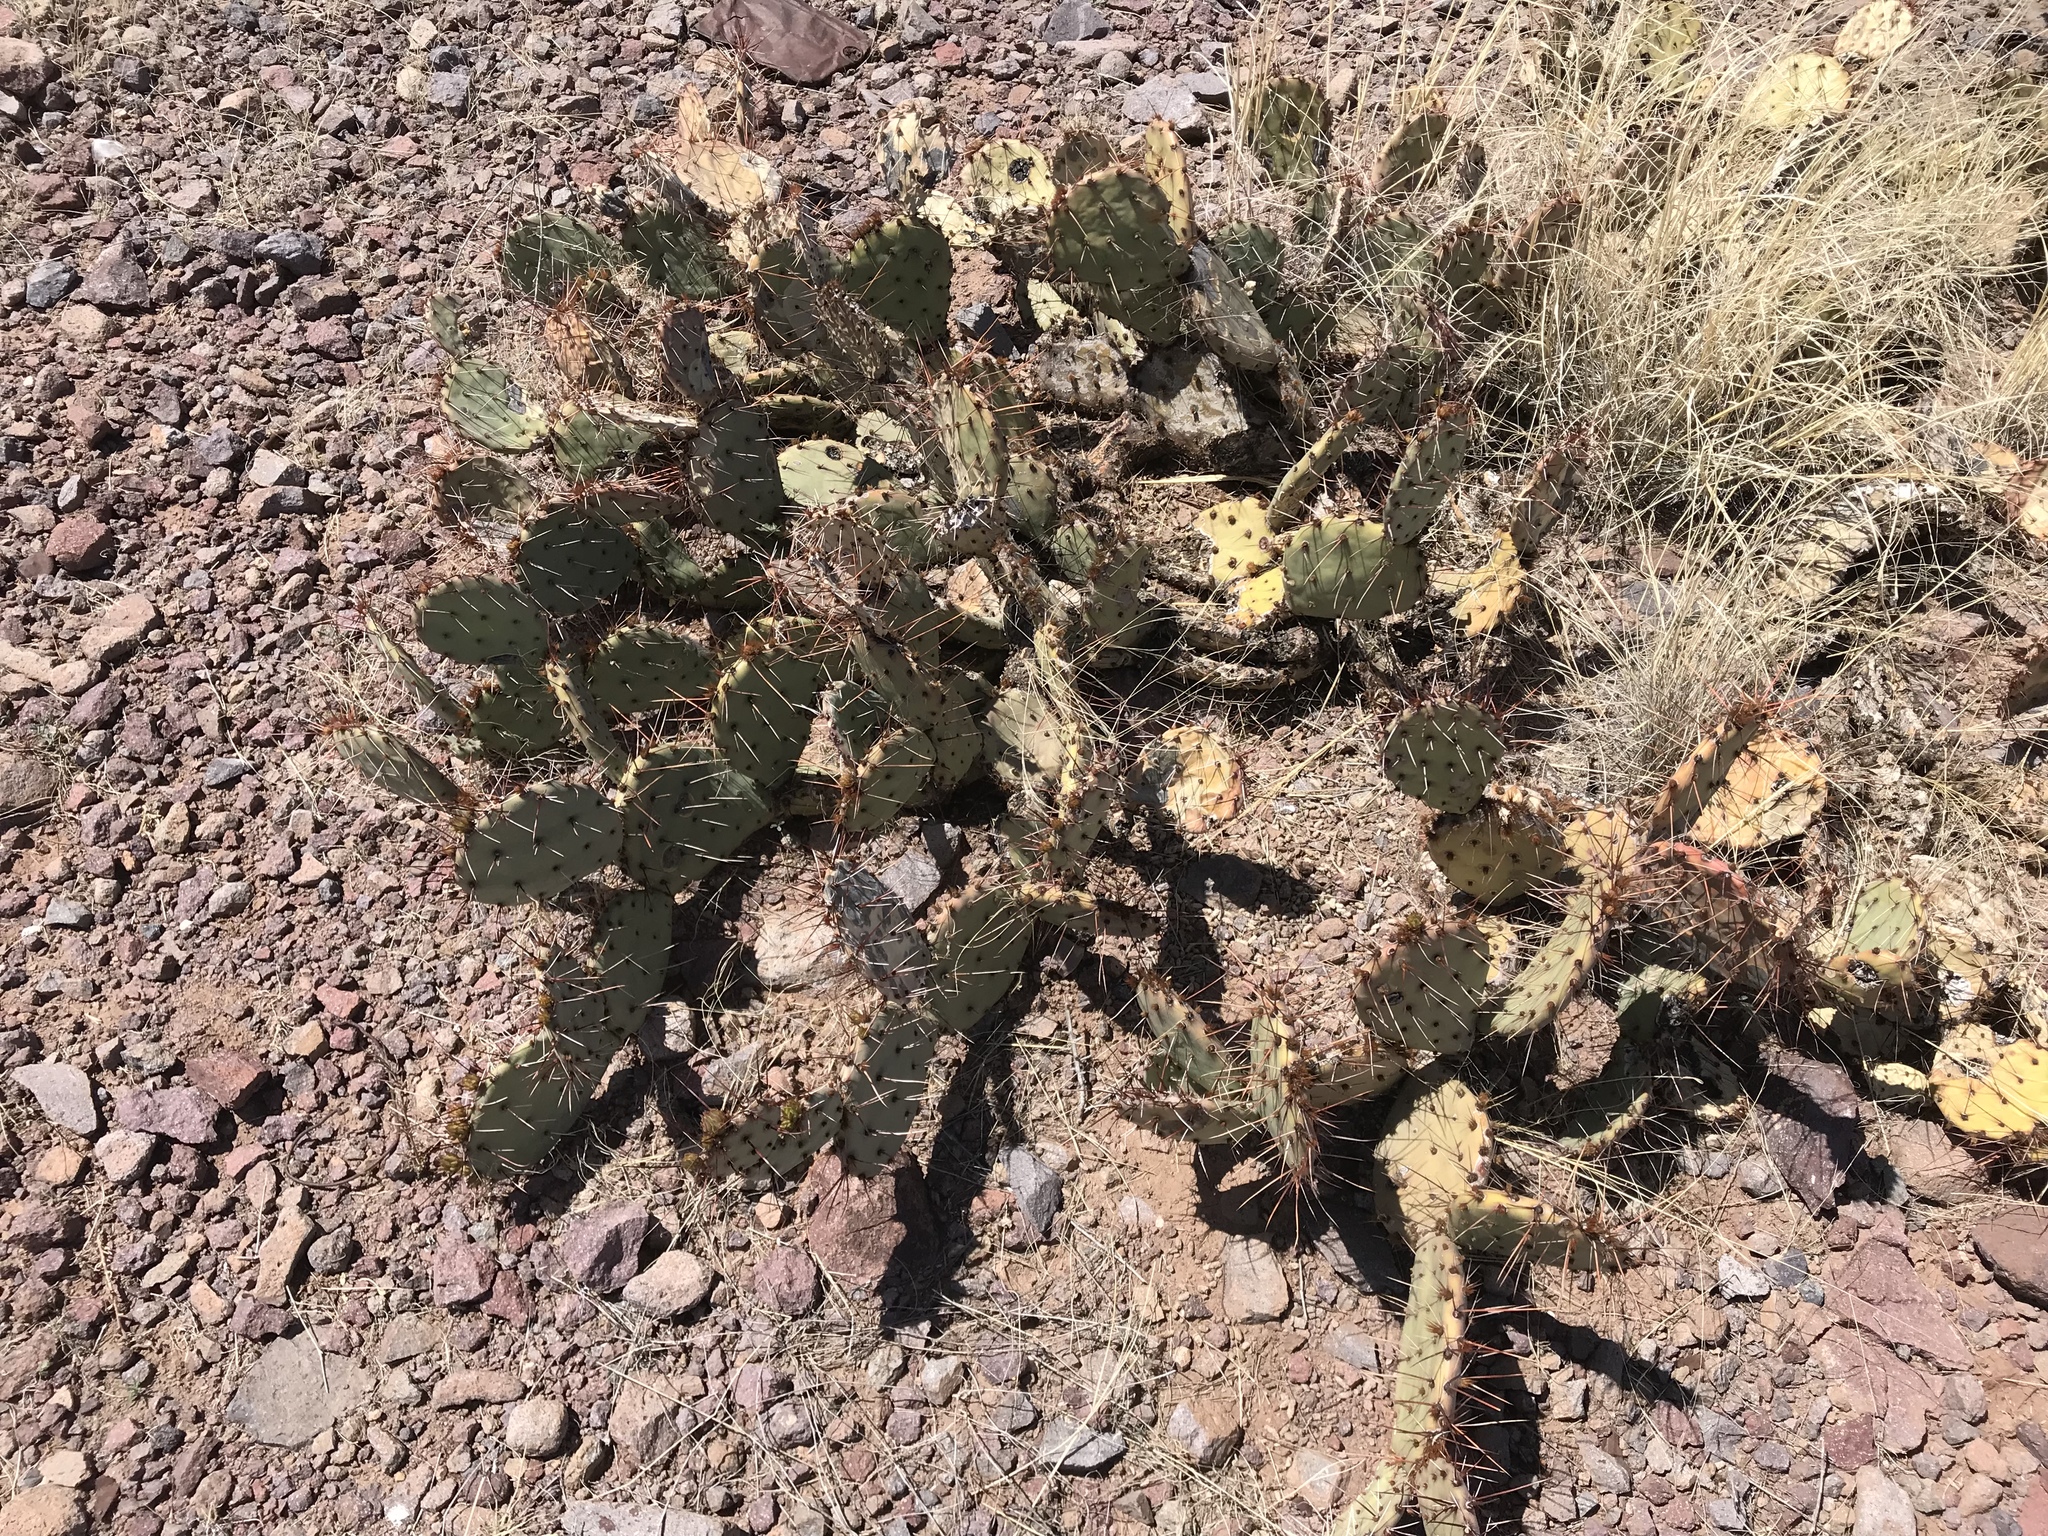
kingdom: Plantae
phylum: Tracheophyta
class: Magnoliopsida
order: Caryophyllales
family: Cactaceae
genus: Opuntia
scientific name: Opuntia phaeacantha
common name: New mexico prickly-pear
